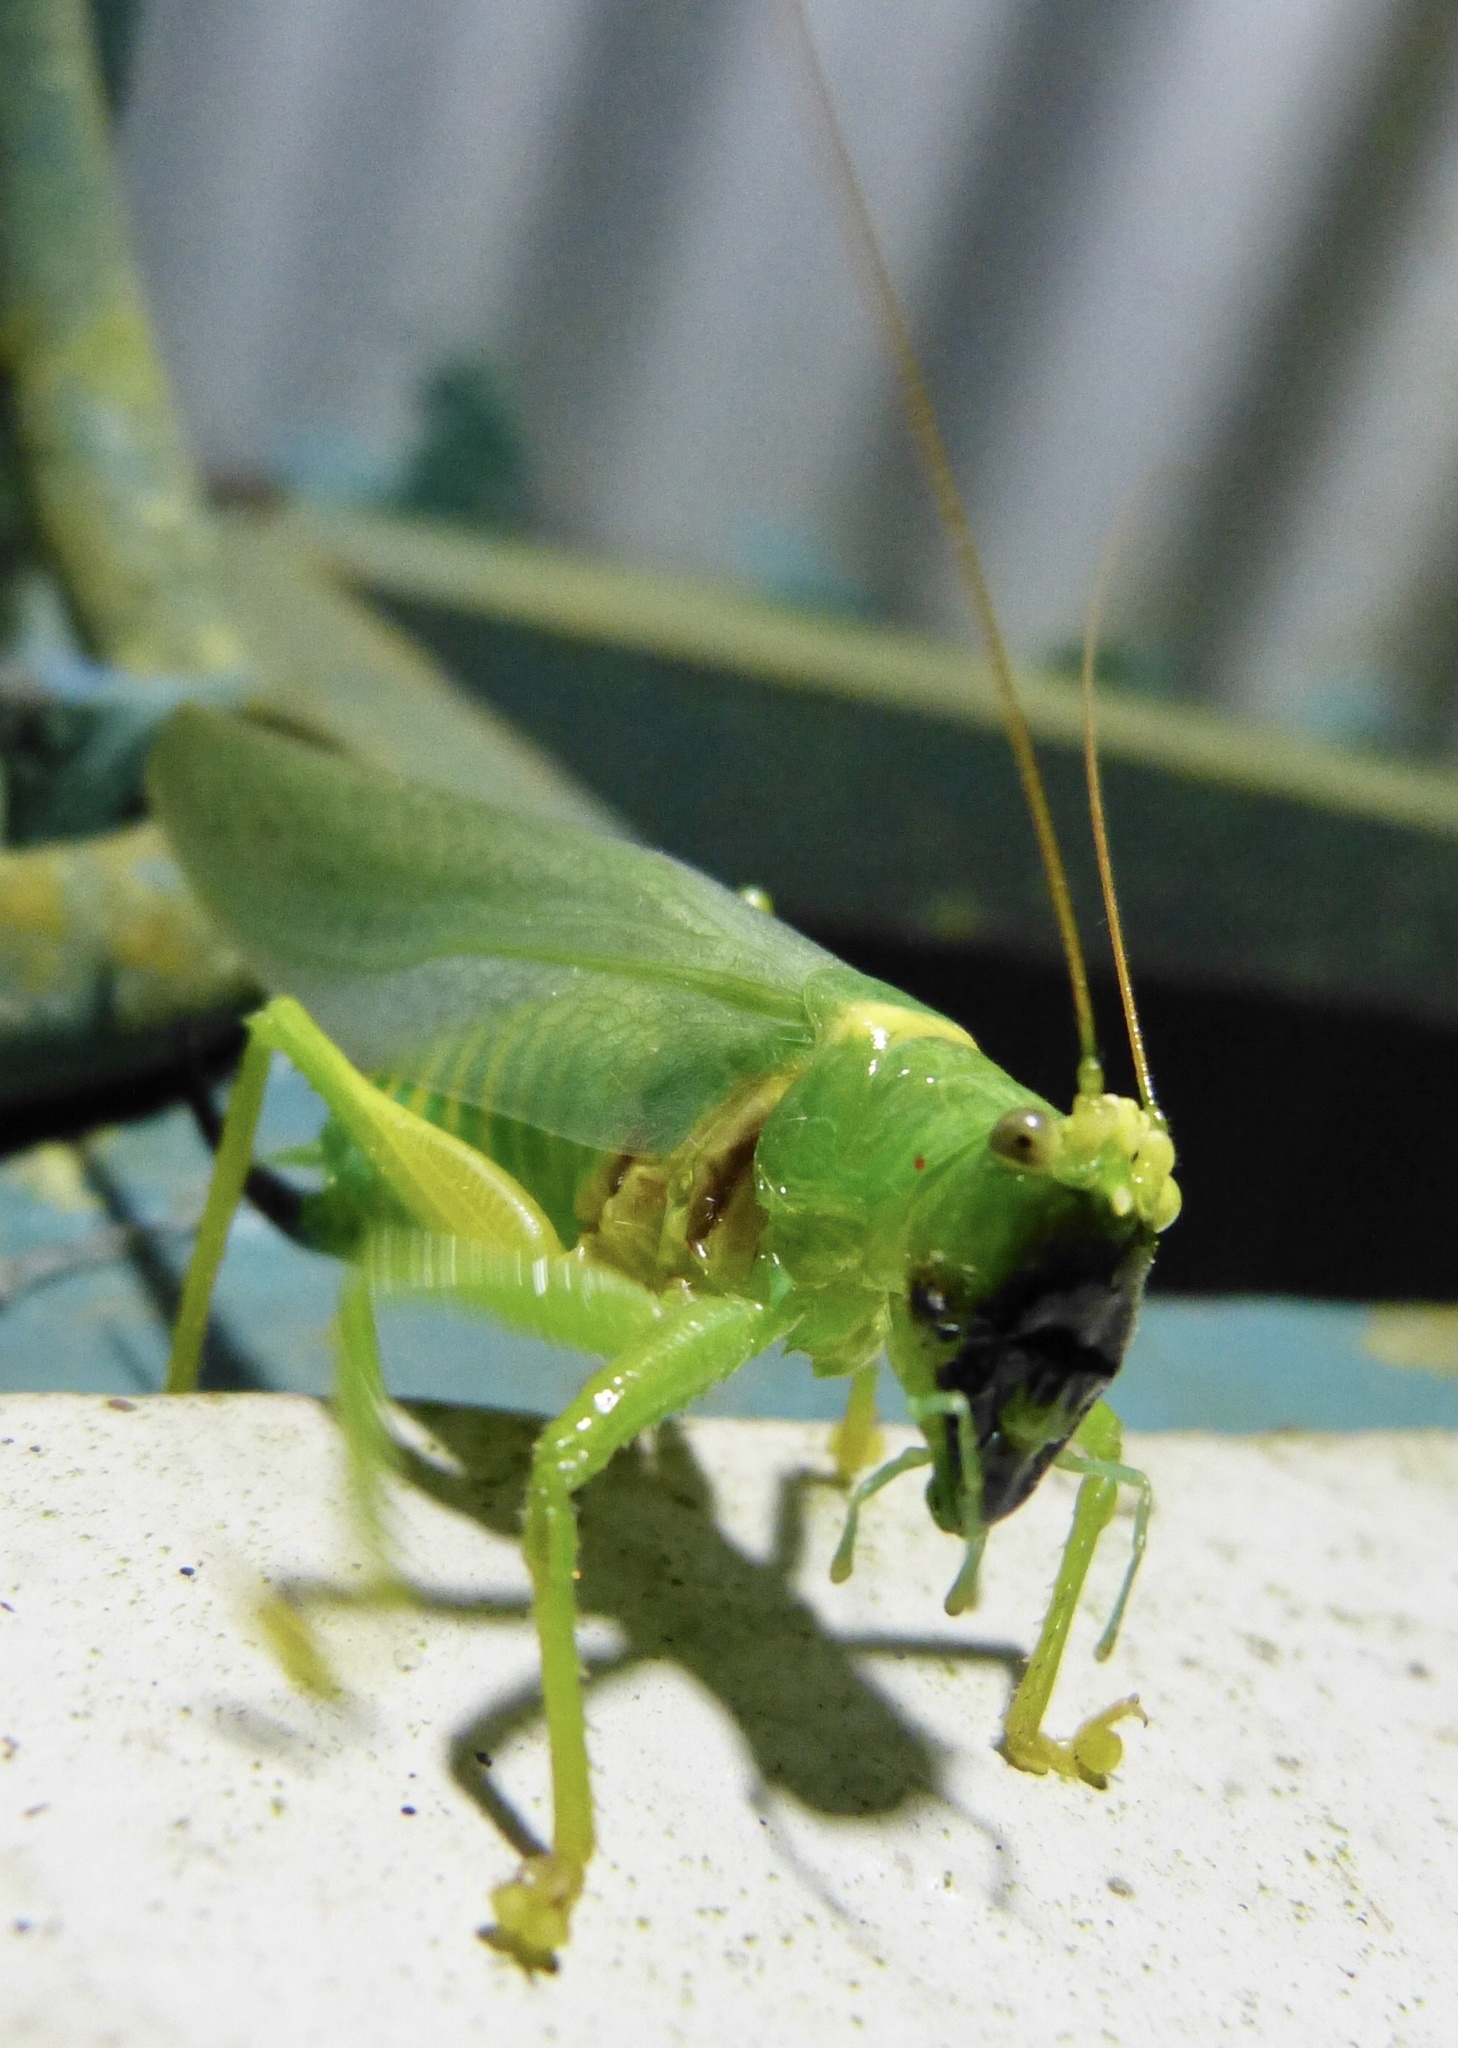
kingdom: Animalia
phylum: Arthropoda
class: Insecta
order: Orthoptera
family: Tettigoniidae
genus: Moncheca
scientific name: Moncheca diadematus
